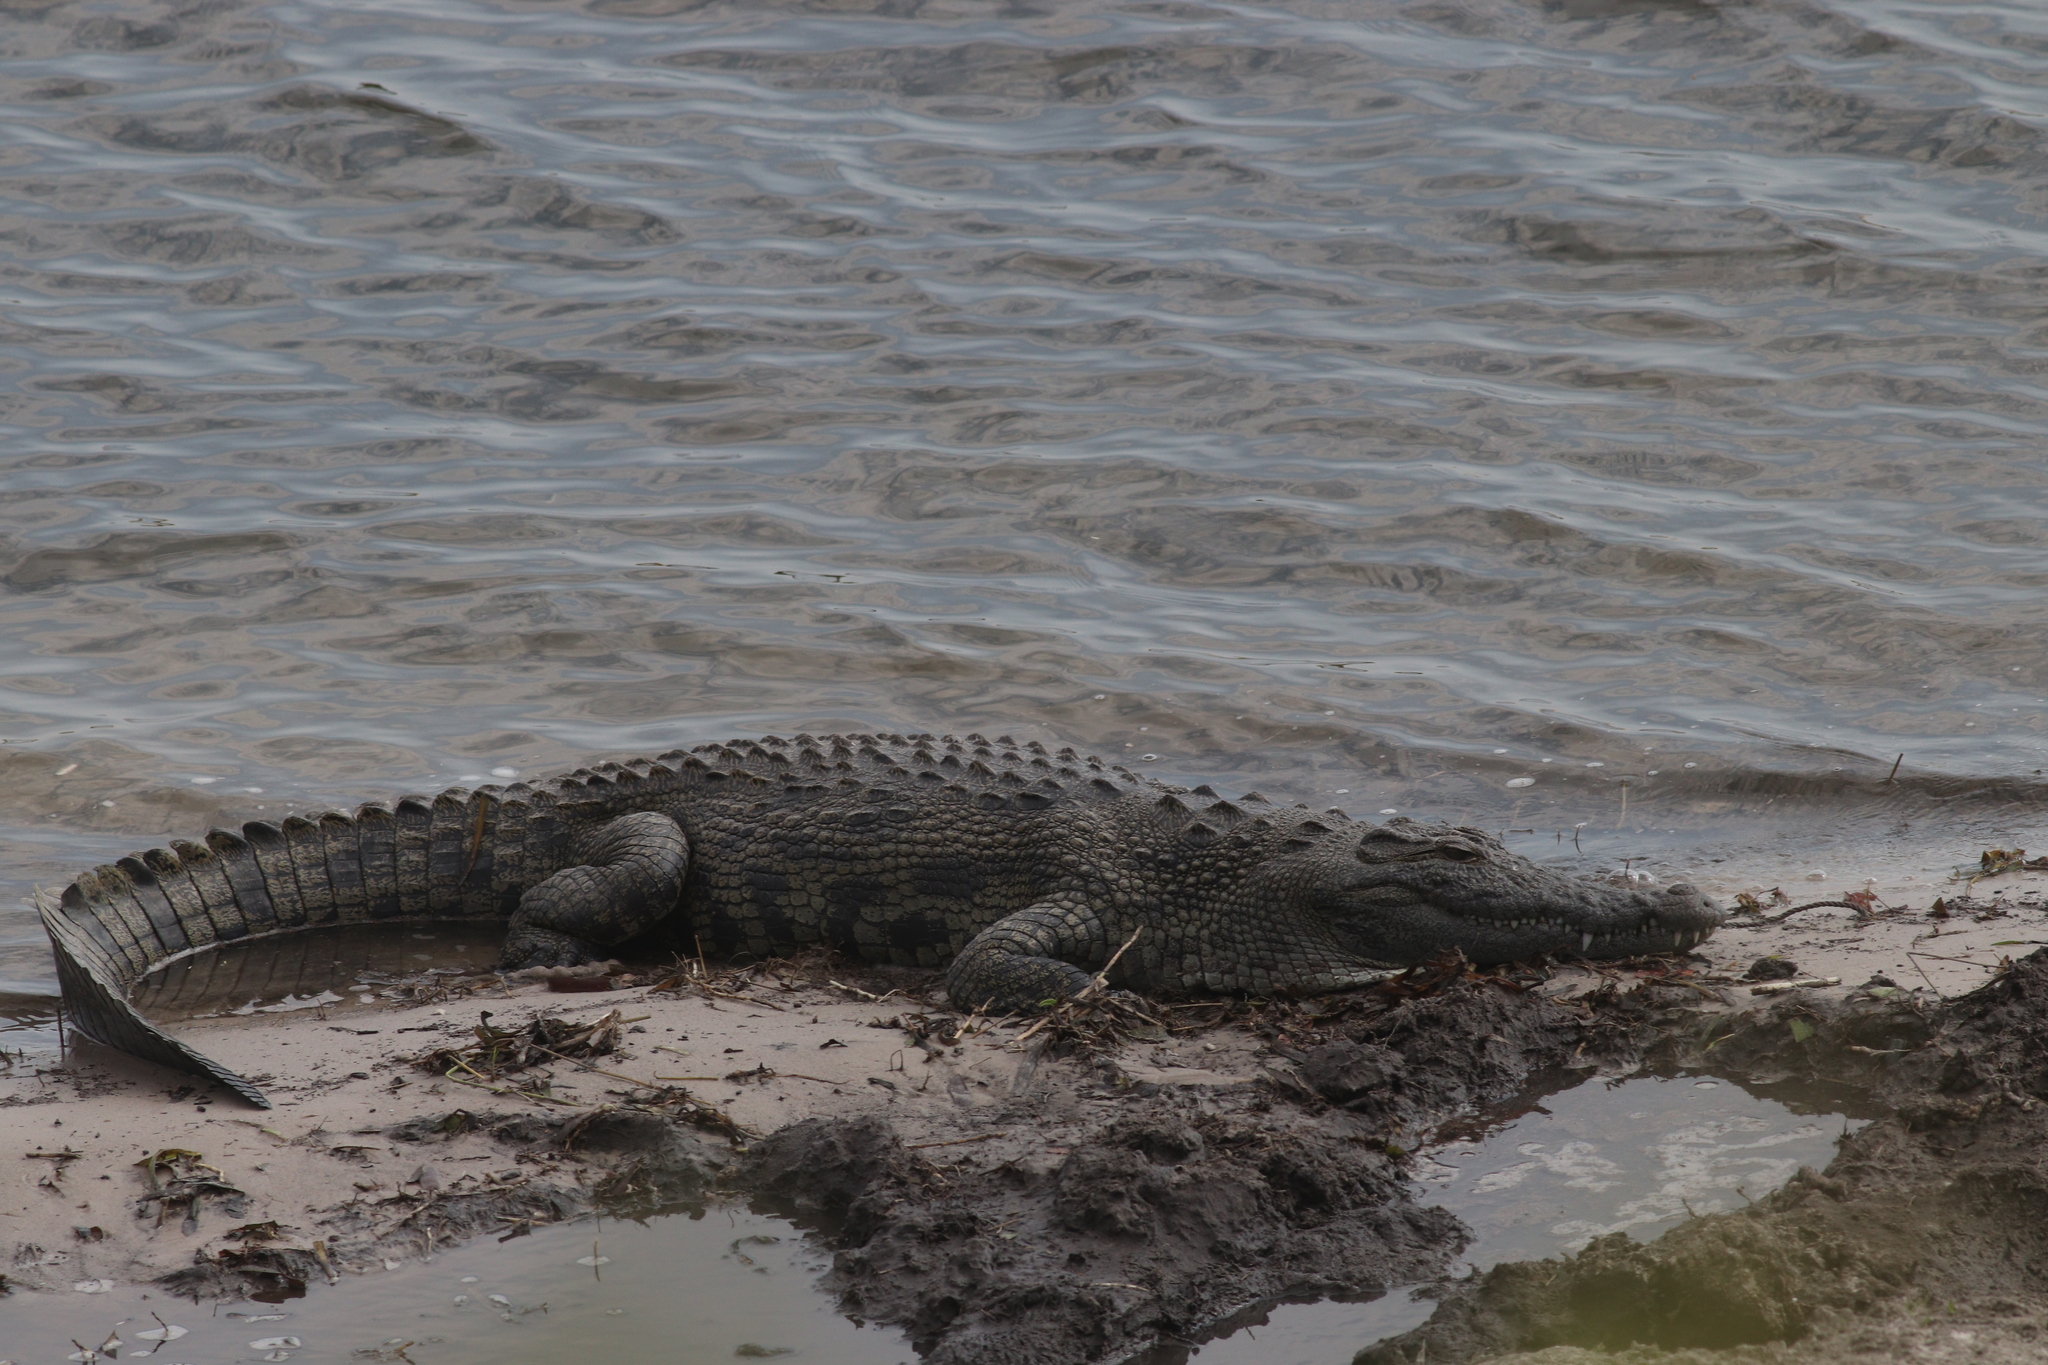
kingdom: Animalia
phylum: Chordata
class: Crocodylia
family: Crocodylidae
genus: Crocodylus
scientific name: Crocodylus niloticus
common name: Nile crocodile
